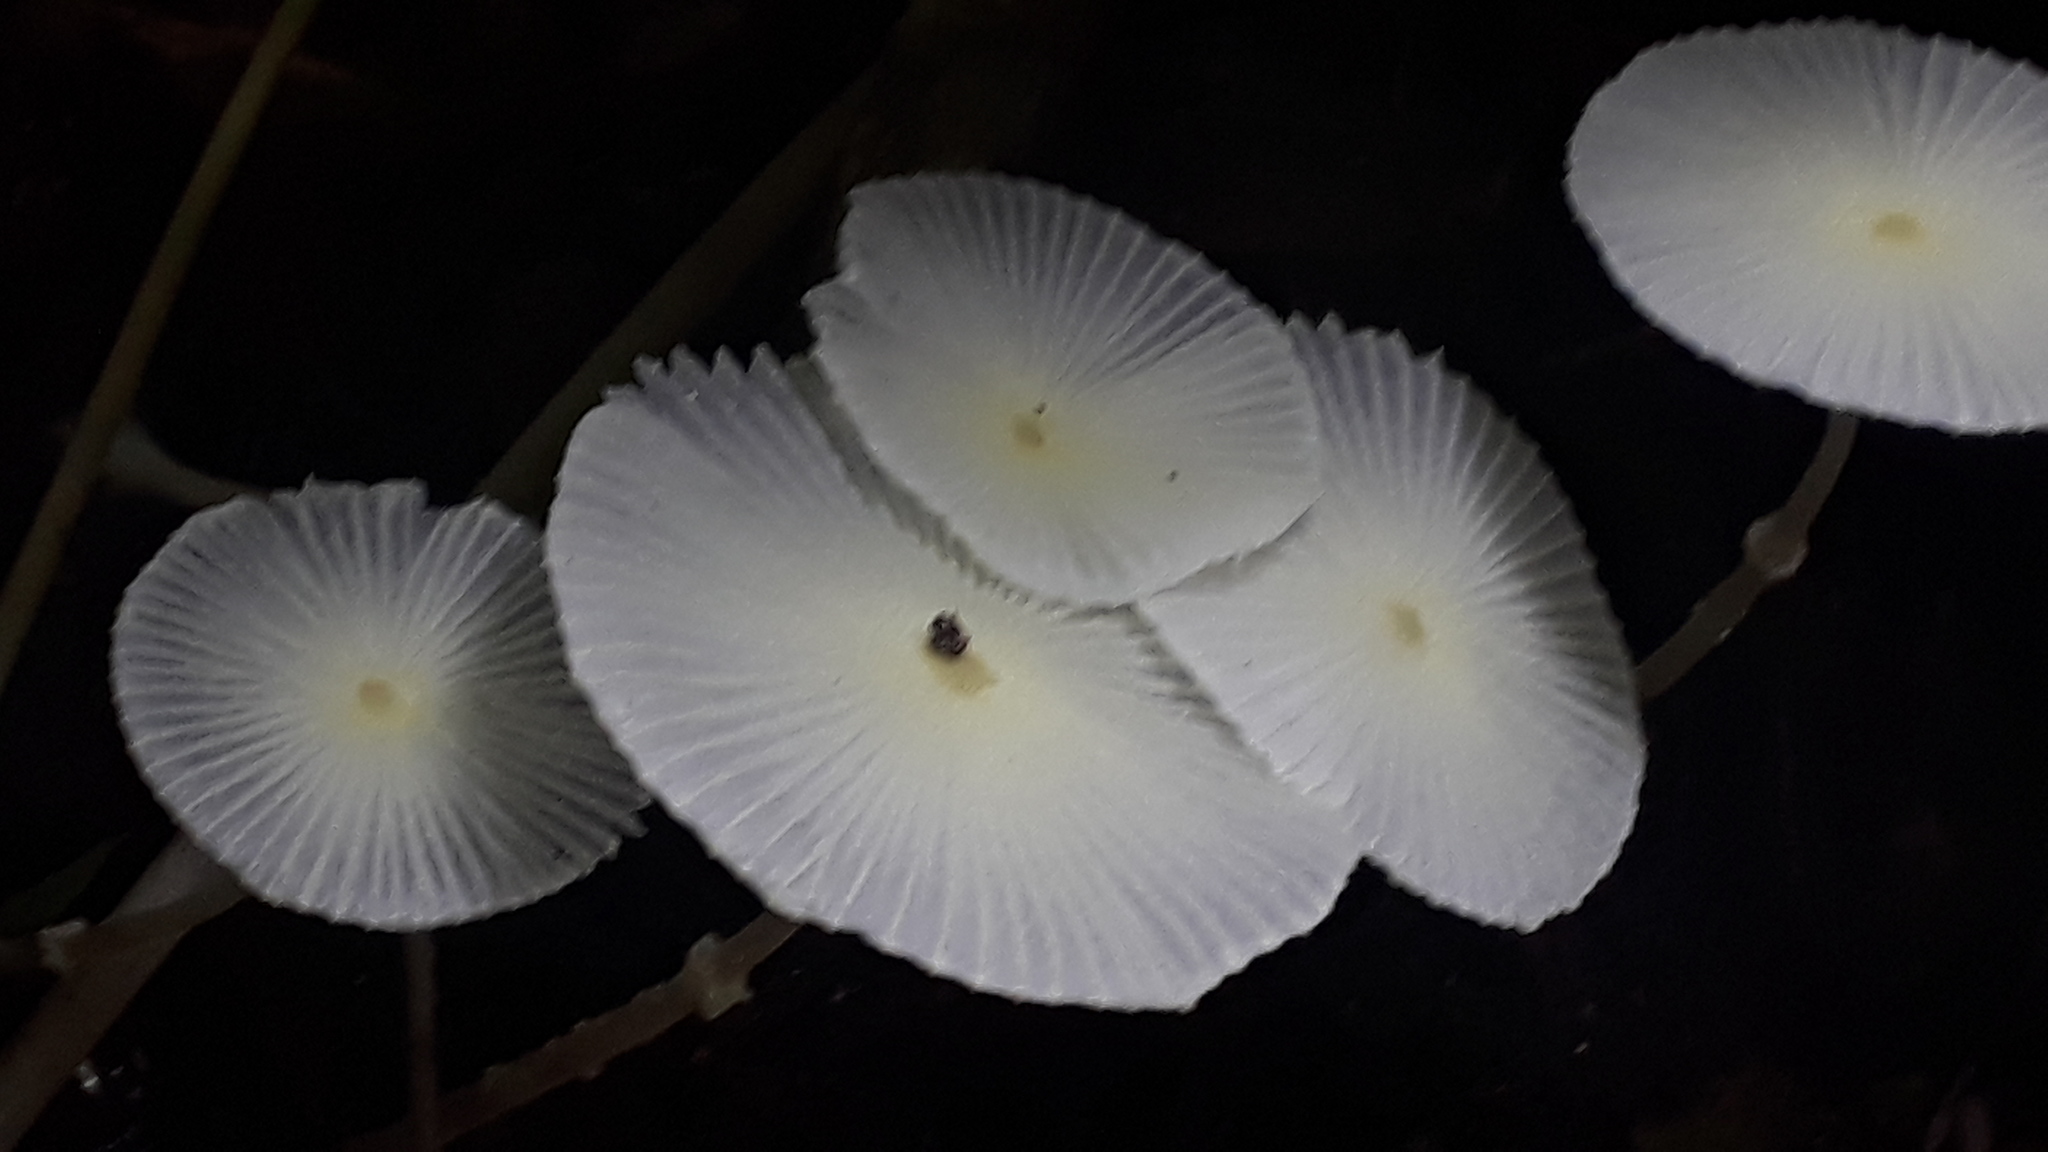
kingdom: Fungi
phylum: Basidiomycota
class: Agaricomycetes
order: Agaricales
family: Agaricaceae
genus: Leucocoprinus
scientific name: Leucocoprinus fragilissimus
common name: Fragile dapperling
